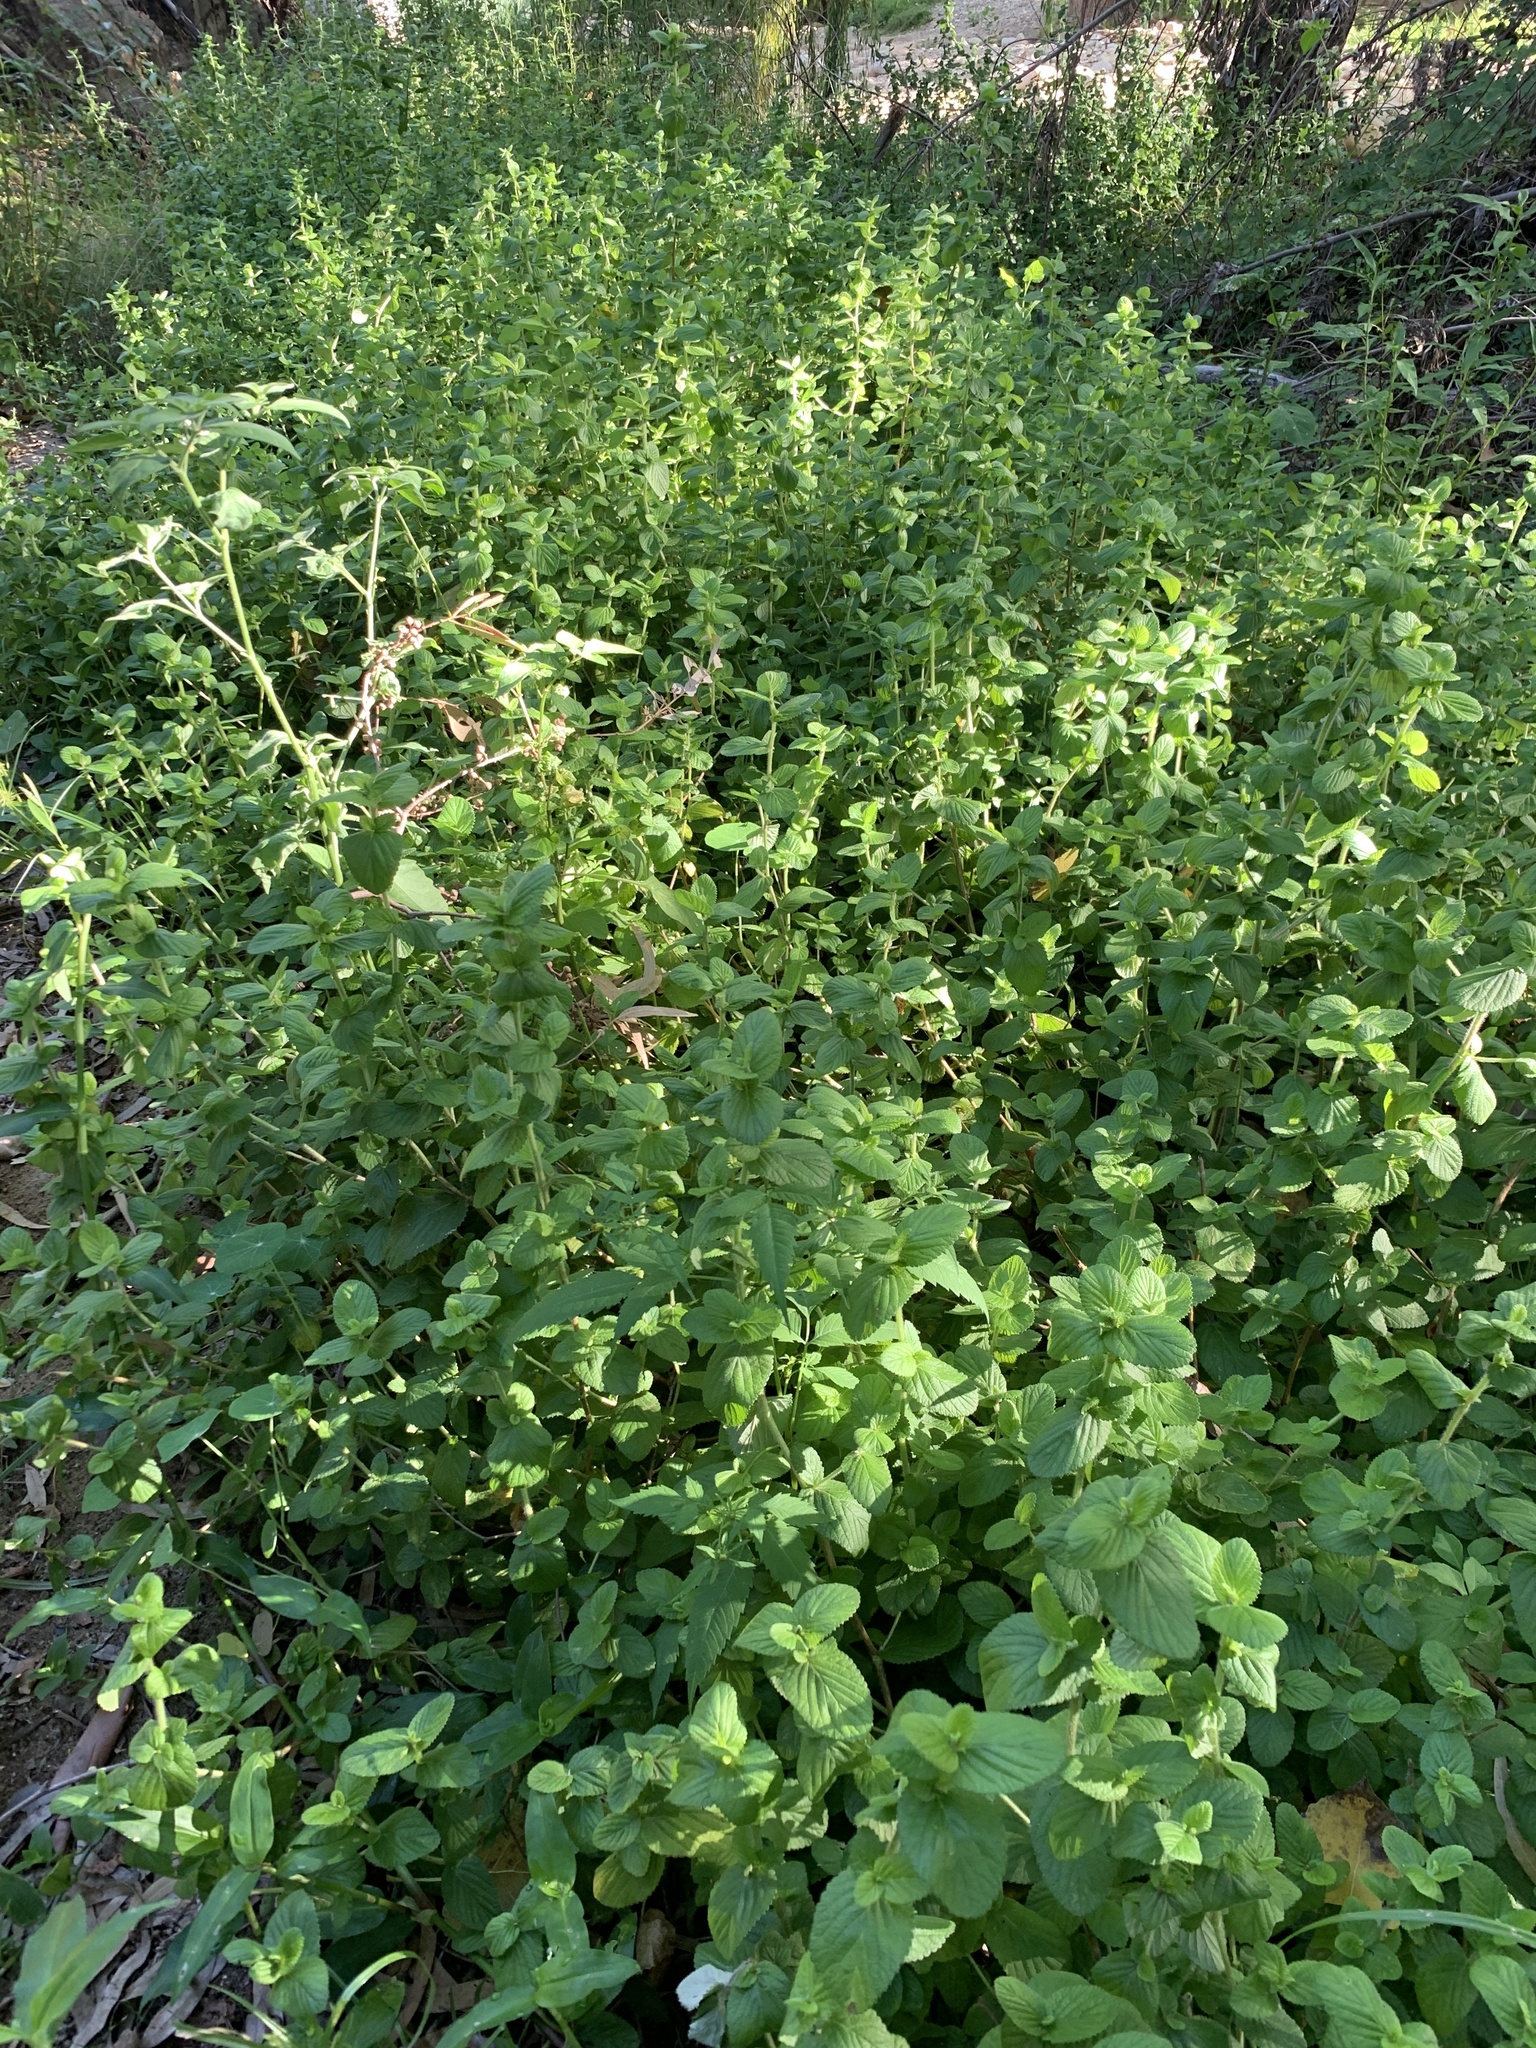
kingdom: Plantae
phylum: Tracheophyta
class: Magnoliopsida
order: Rosales
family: Rosaceae
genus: Cliffortia
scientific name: Cliffortia odorata
